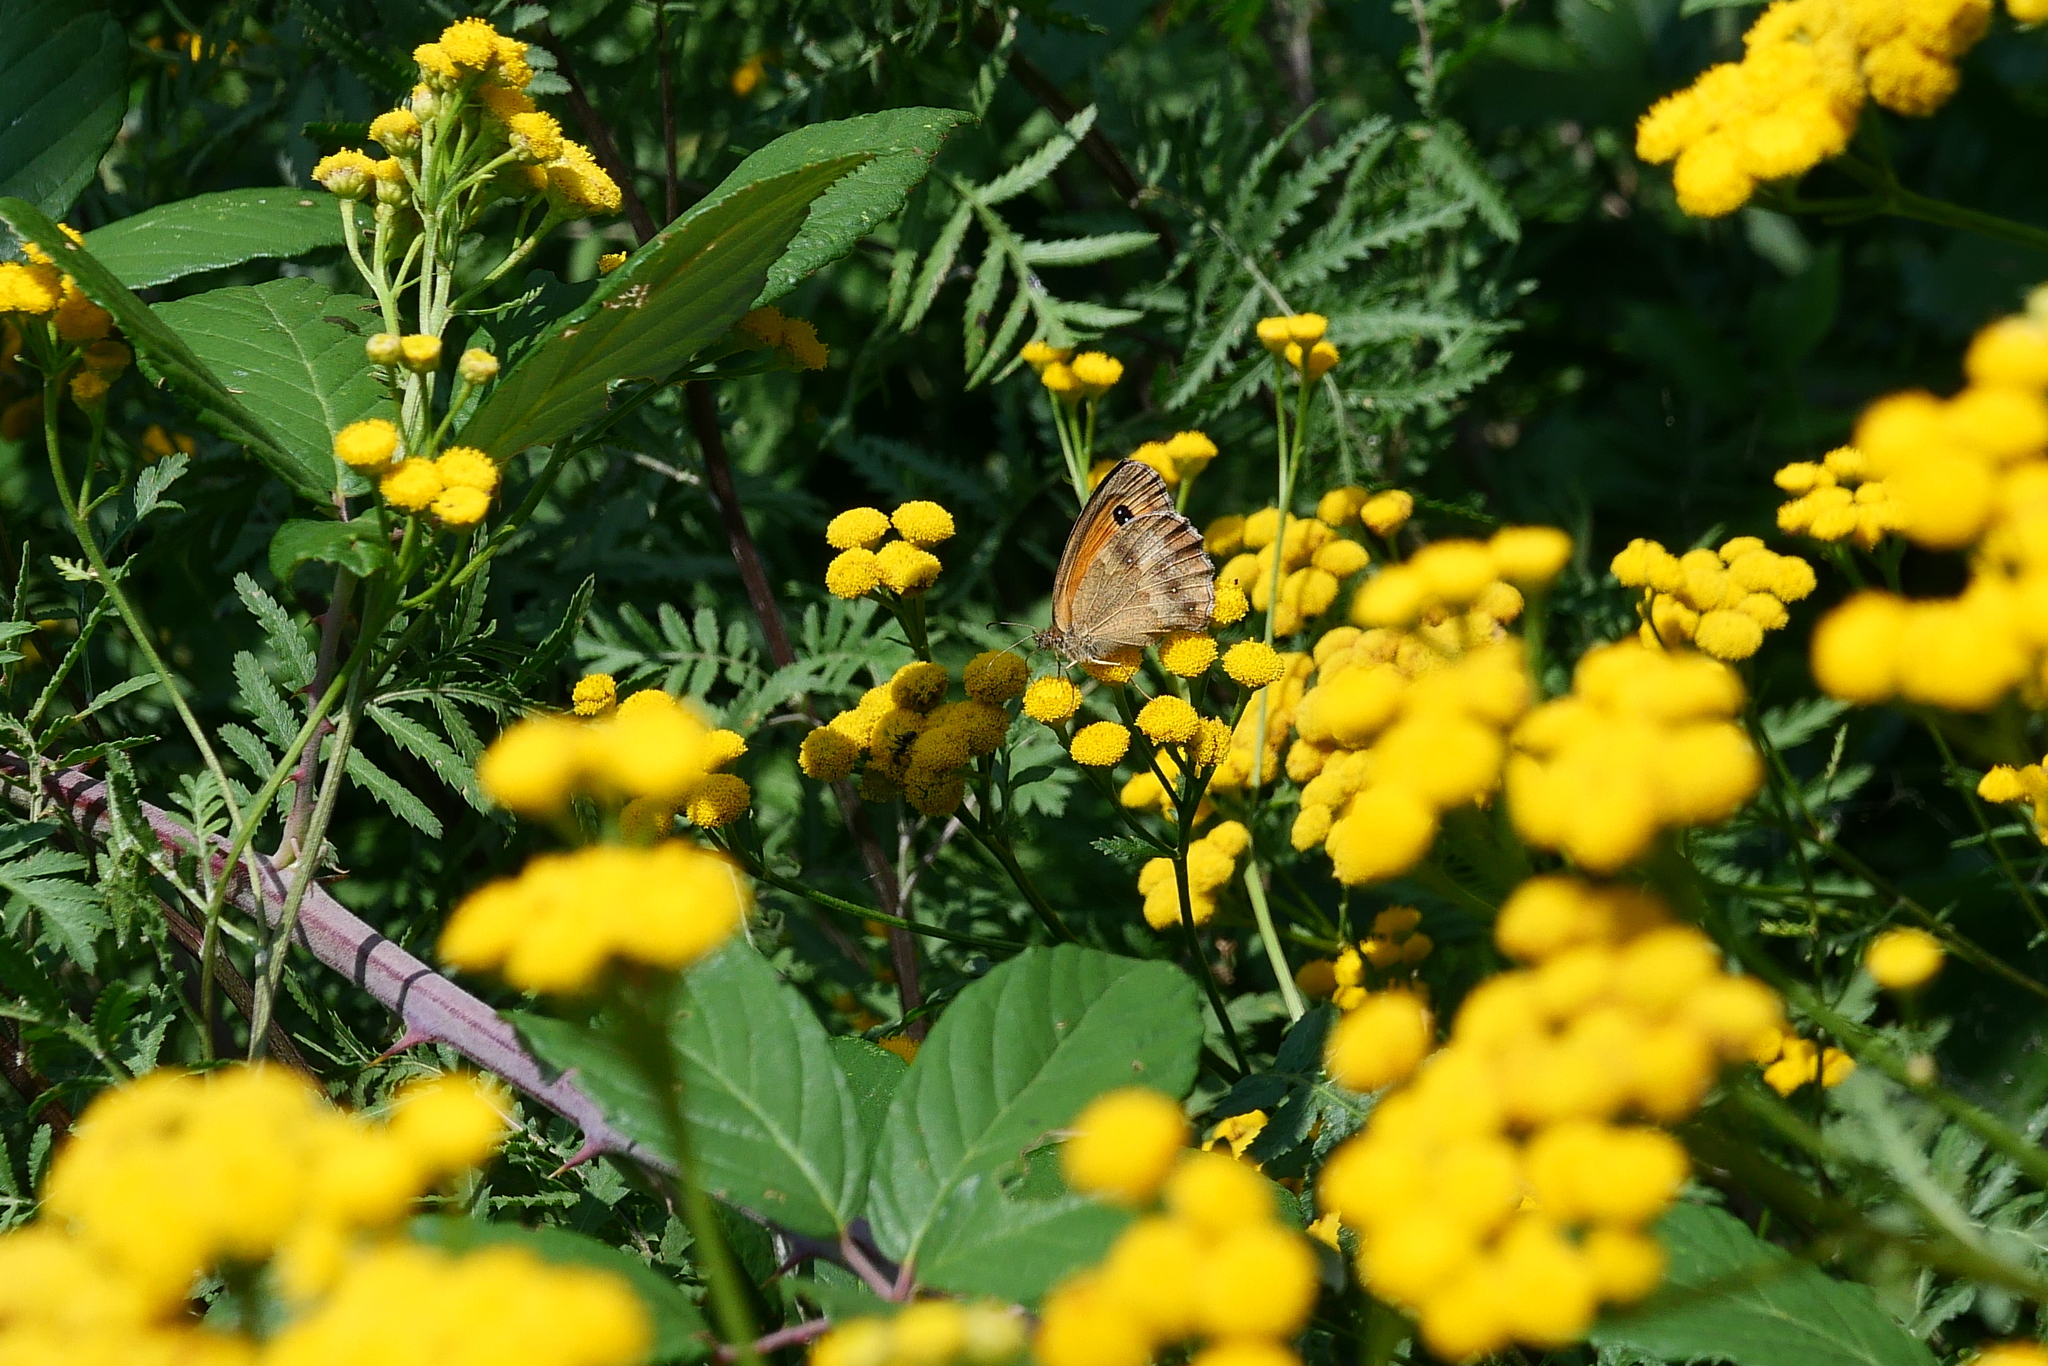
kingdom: Animalia
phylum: Arthropoda
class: Insecta
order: Lepidoptera
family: Nymphalidae
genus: Pyronia
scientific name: Pyronia tithonus
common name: Gatekeeper
